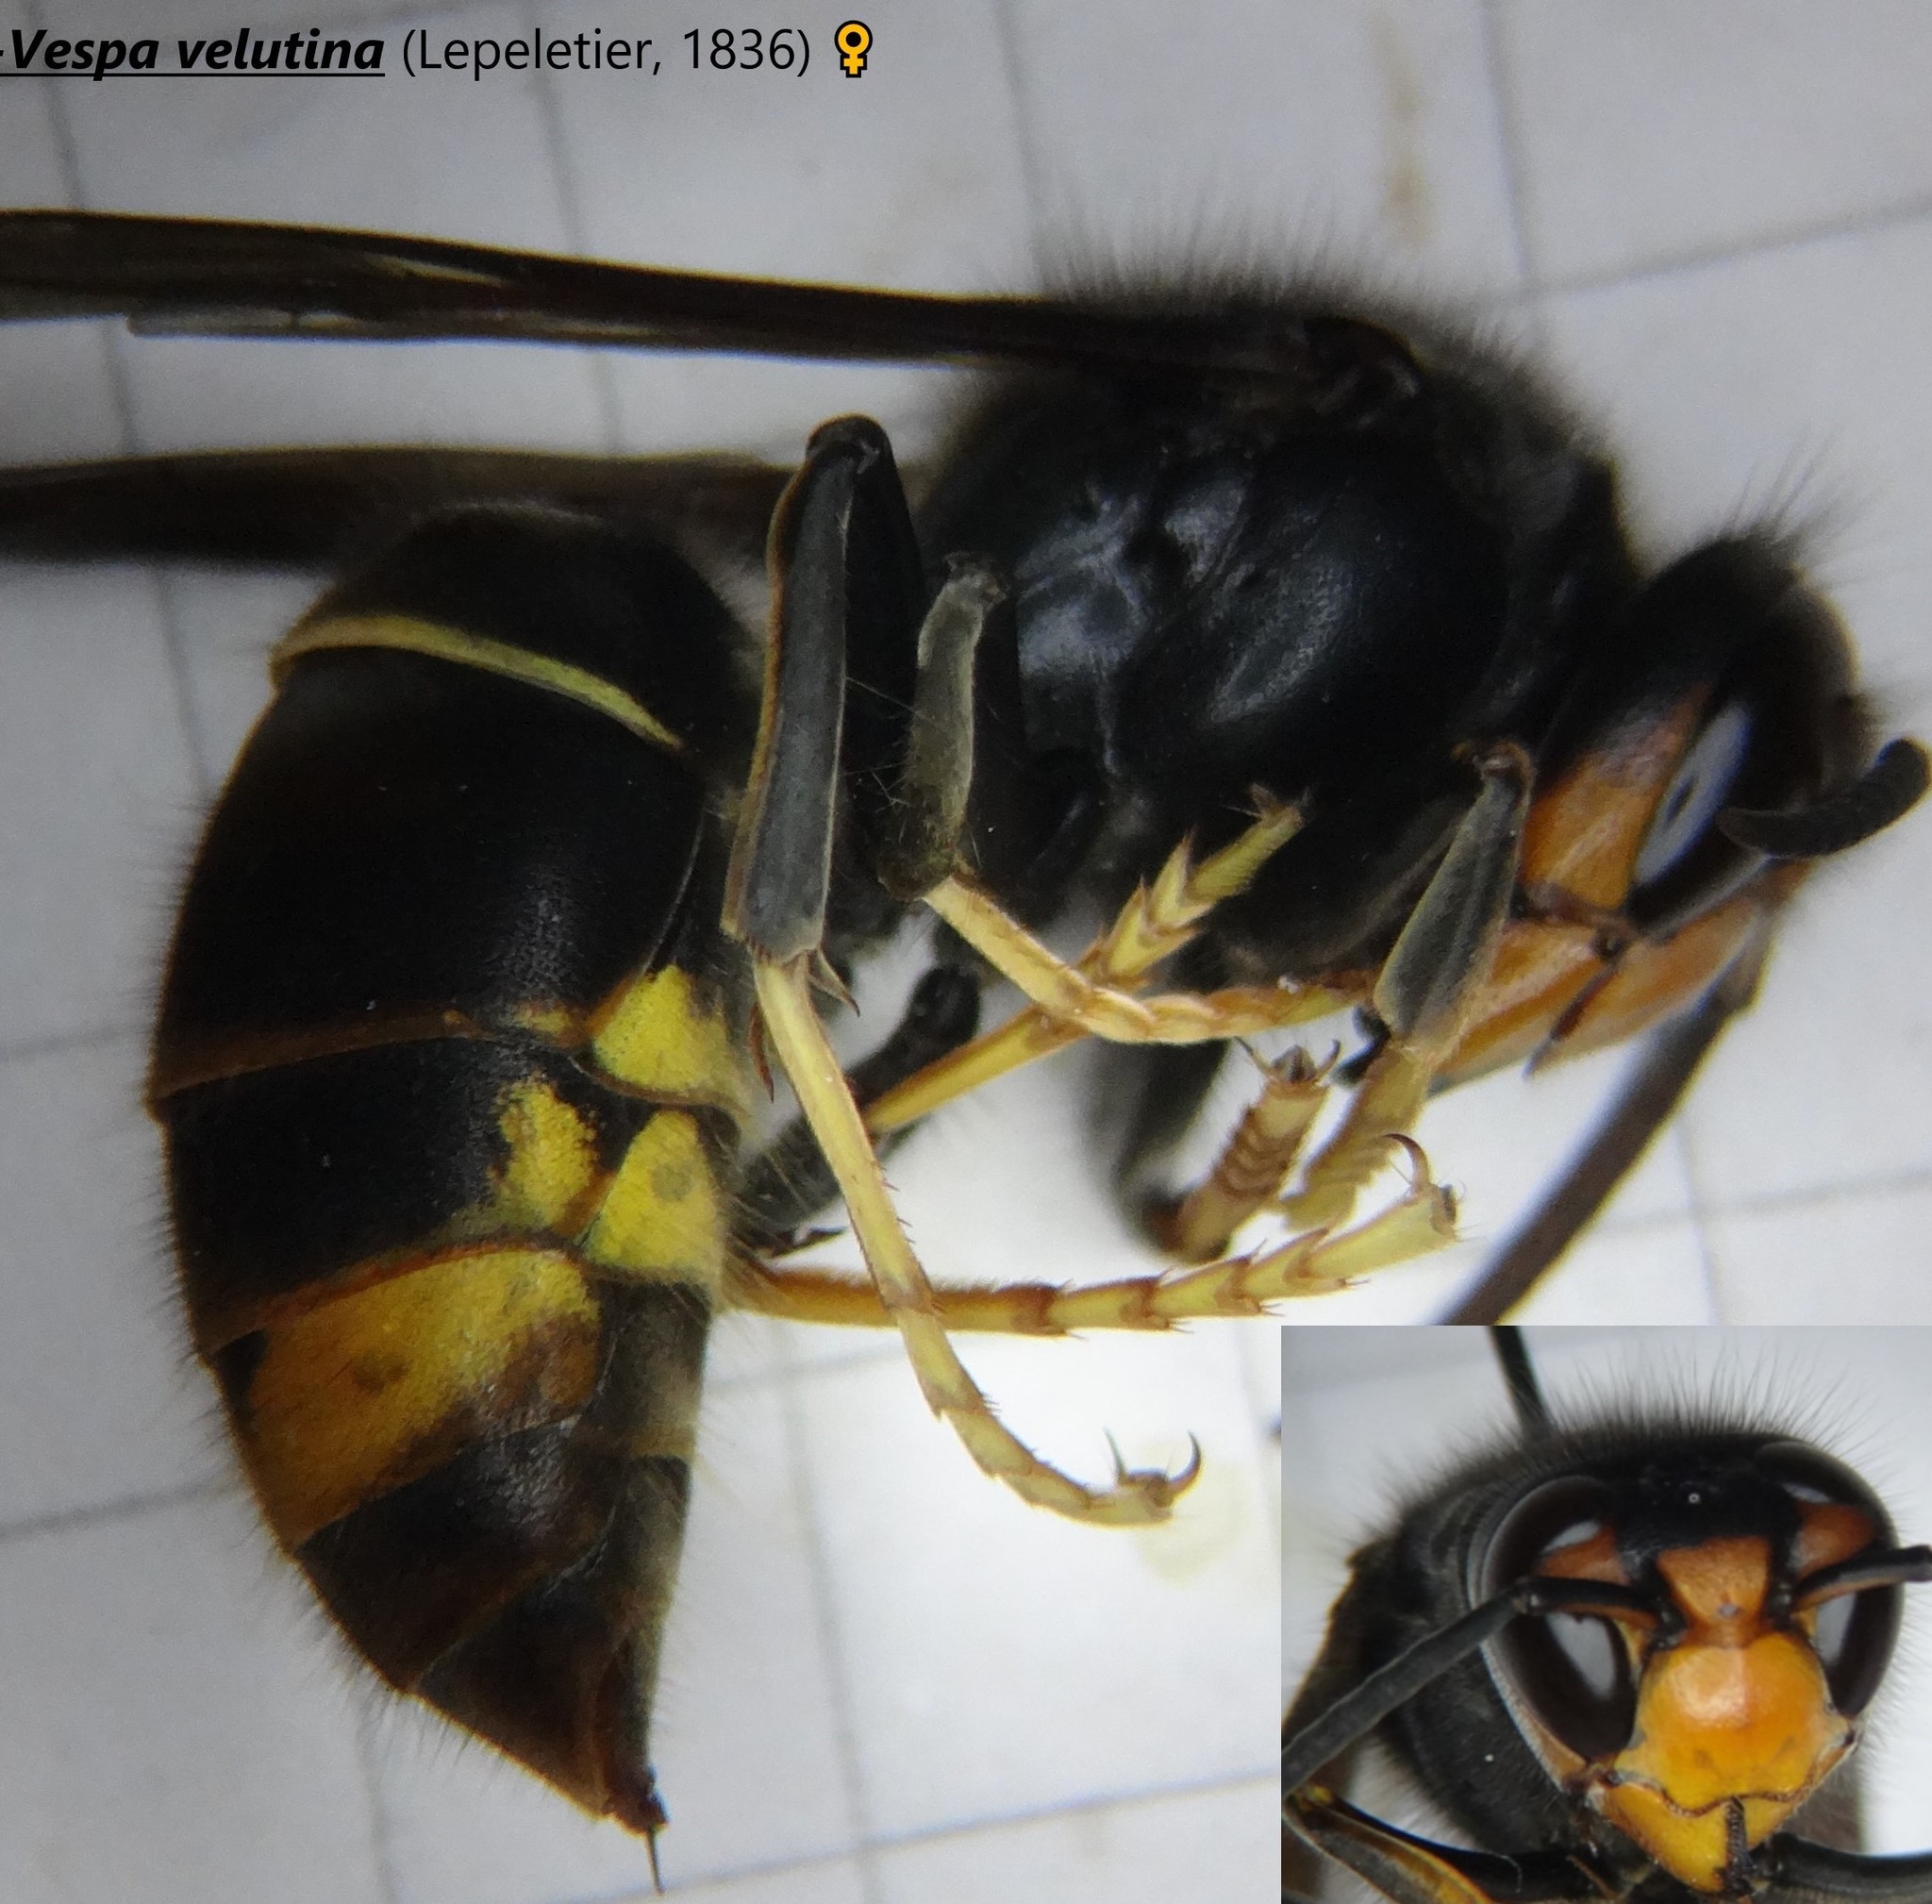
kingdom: Animalia
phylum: Arthropoda
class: Insecta
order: Hymenoptera
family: Vespidae
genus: Vespa
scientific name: Vespa velutina
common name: Asian hornet
